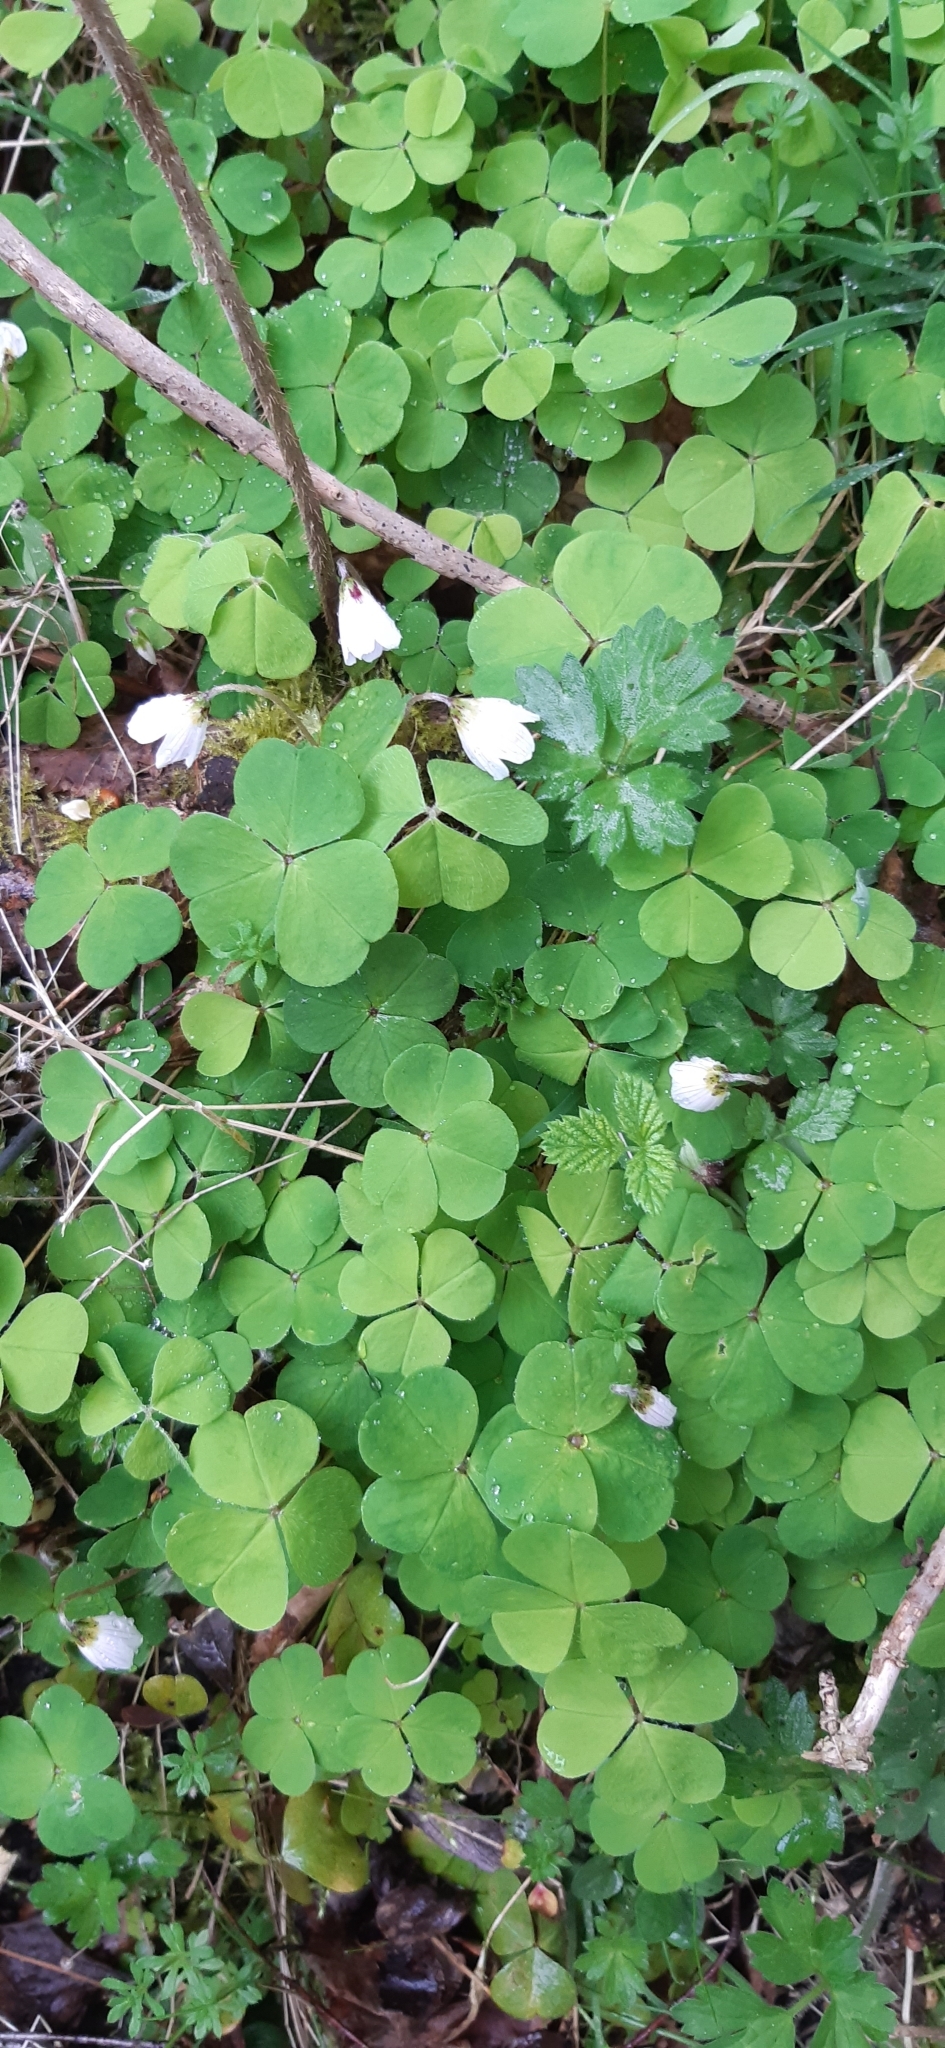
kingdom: Plantae
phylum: Tracheophyta
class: Magnoliopsida
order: Oxalidales
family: Oxalidaceae
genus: Oxalis
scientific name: Oxalis acetosella
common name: Wood-sorrel
